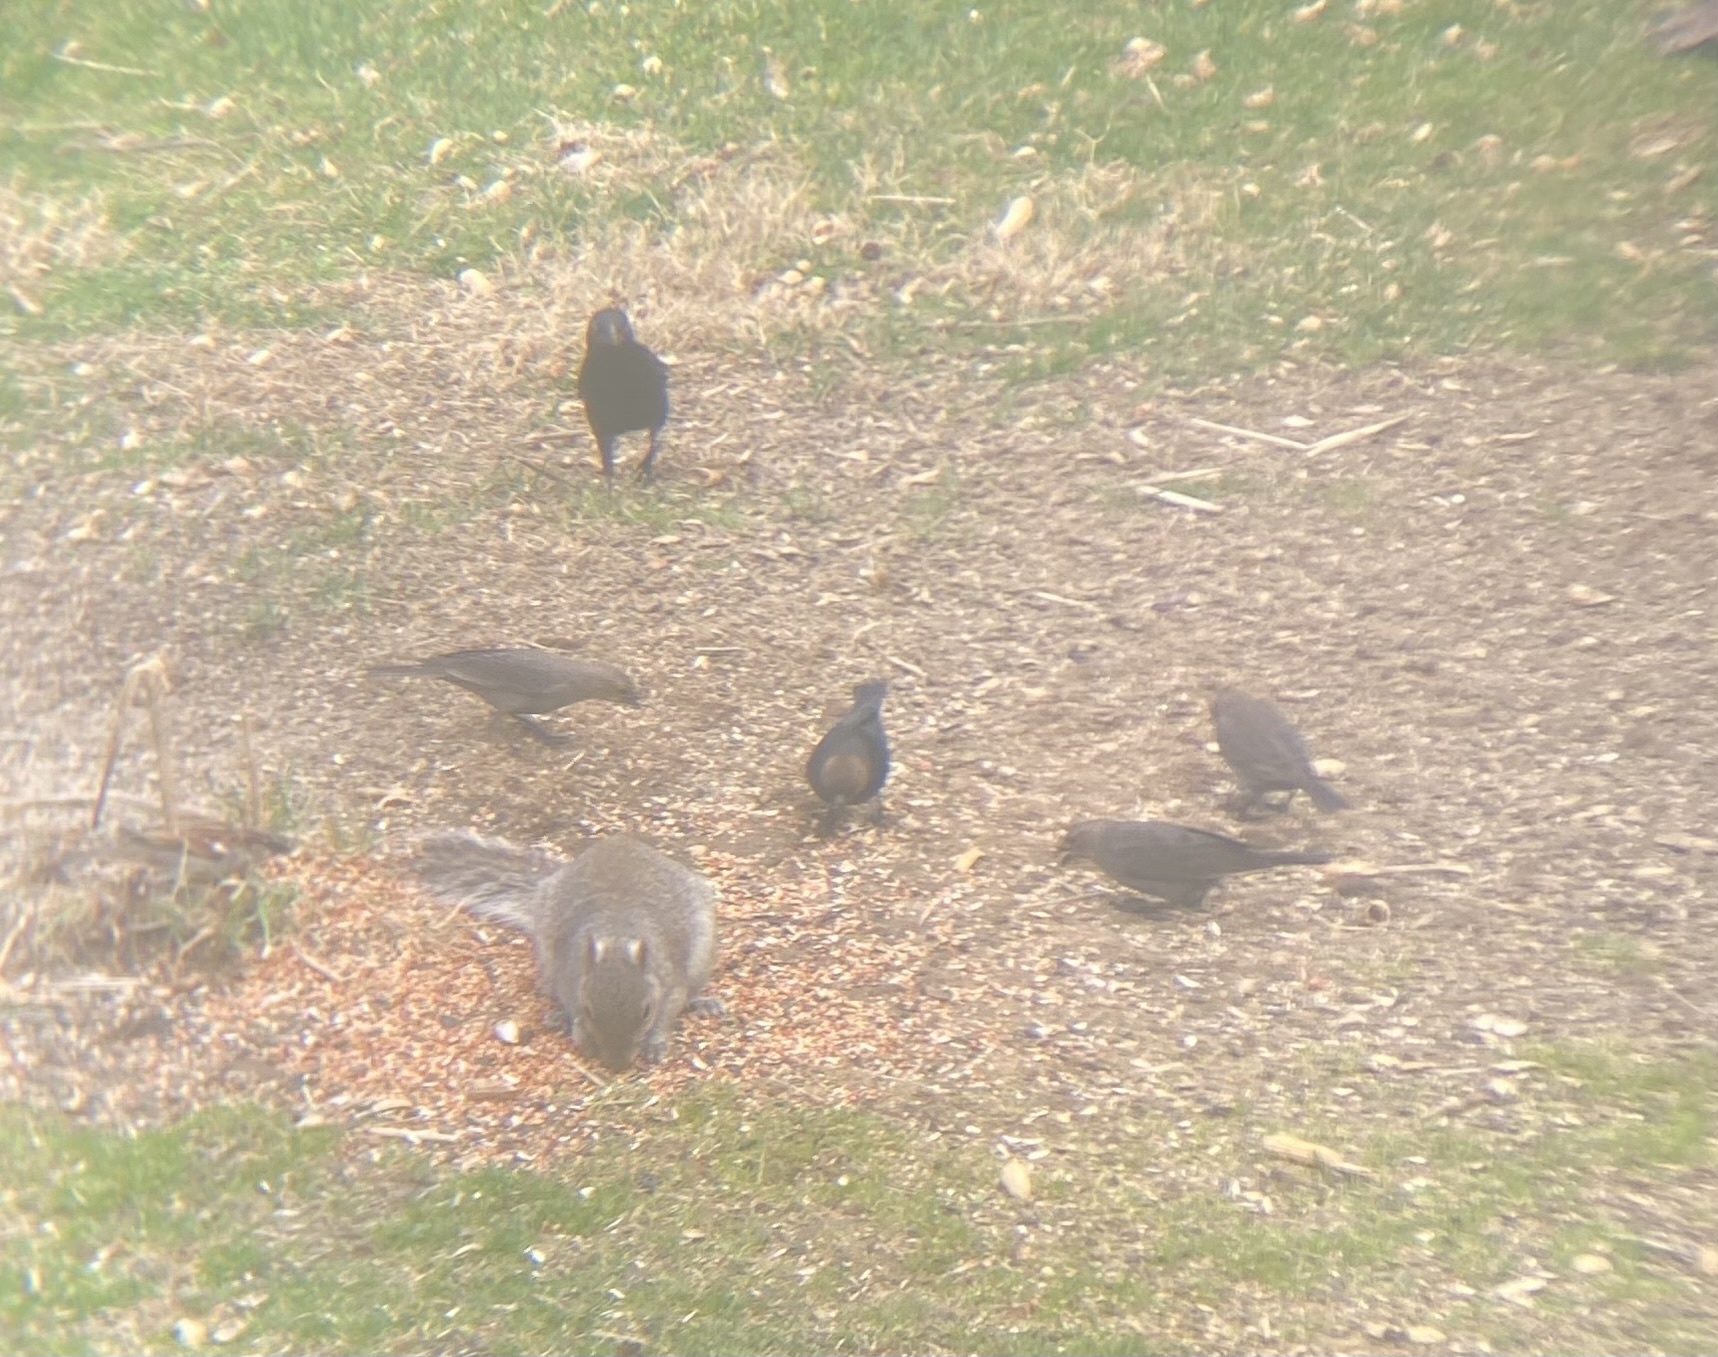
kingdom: Animalia
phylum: Chordata
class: Aves
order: Passeriformes
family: Icteridae
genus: Molothrus
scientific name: Molothrus ater
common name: Brown-headed cowbird
